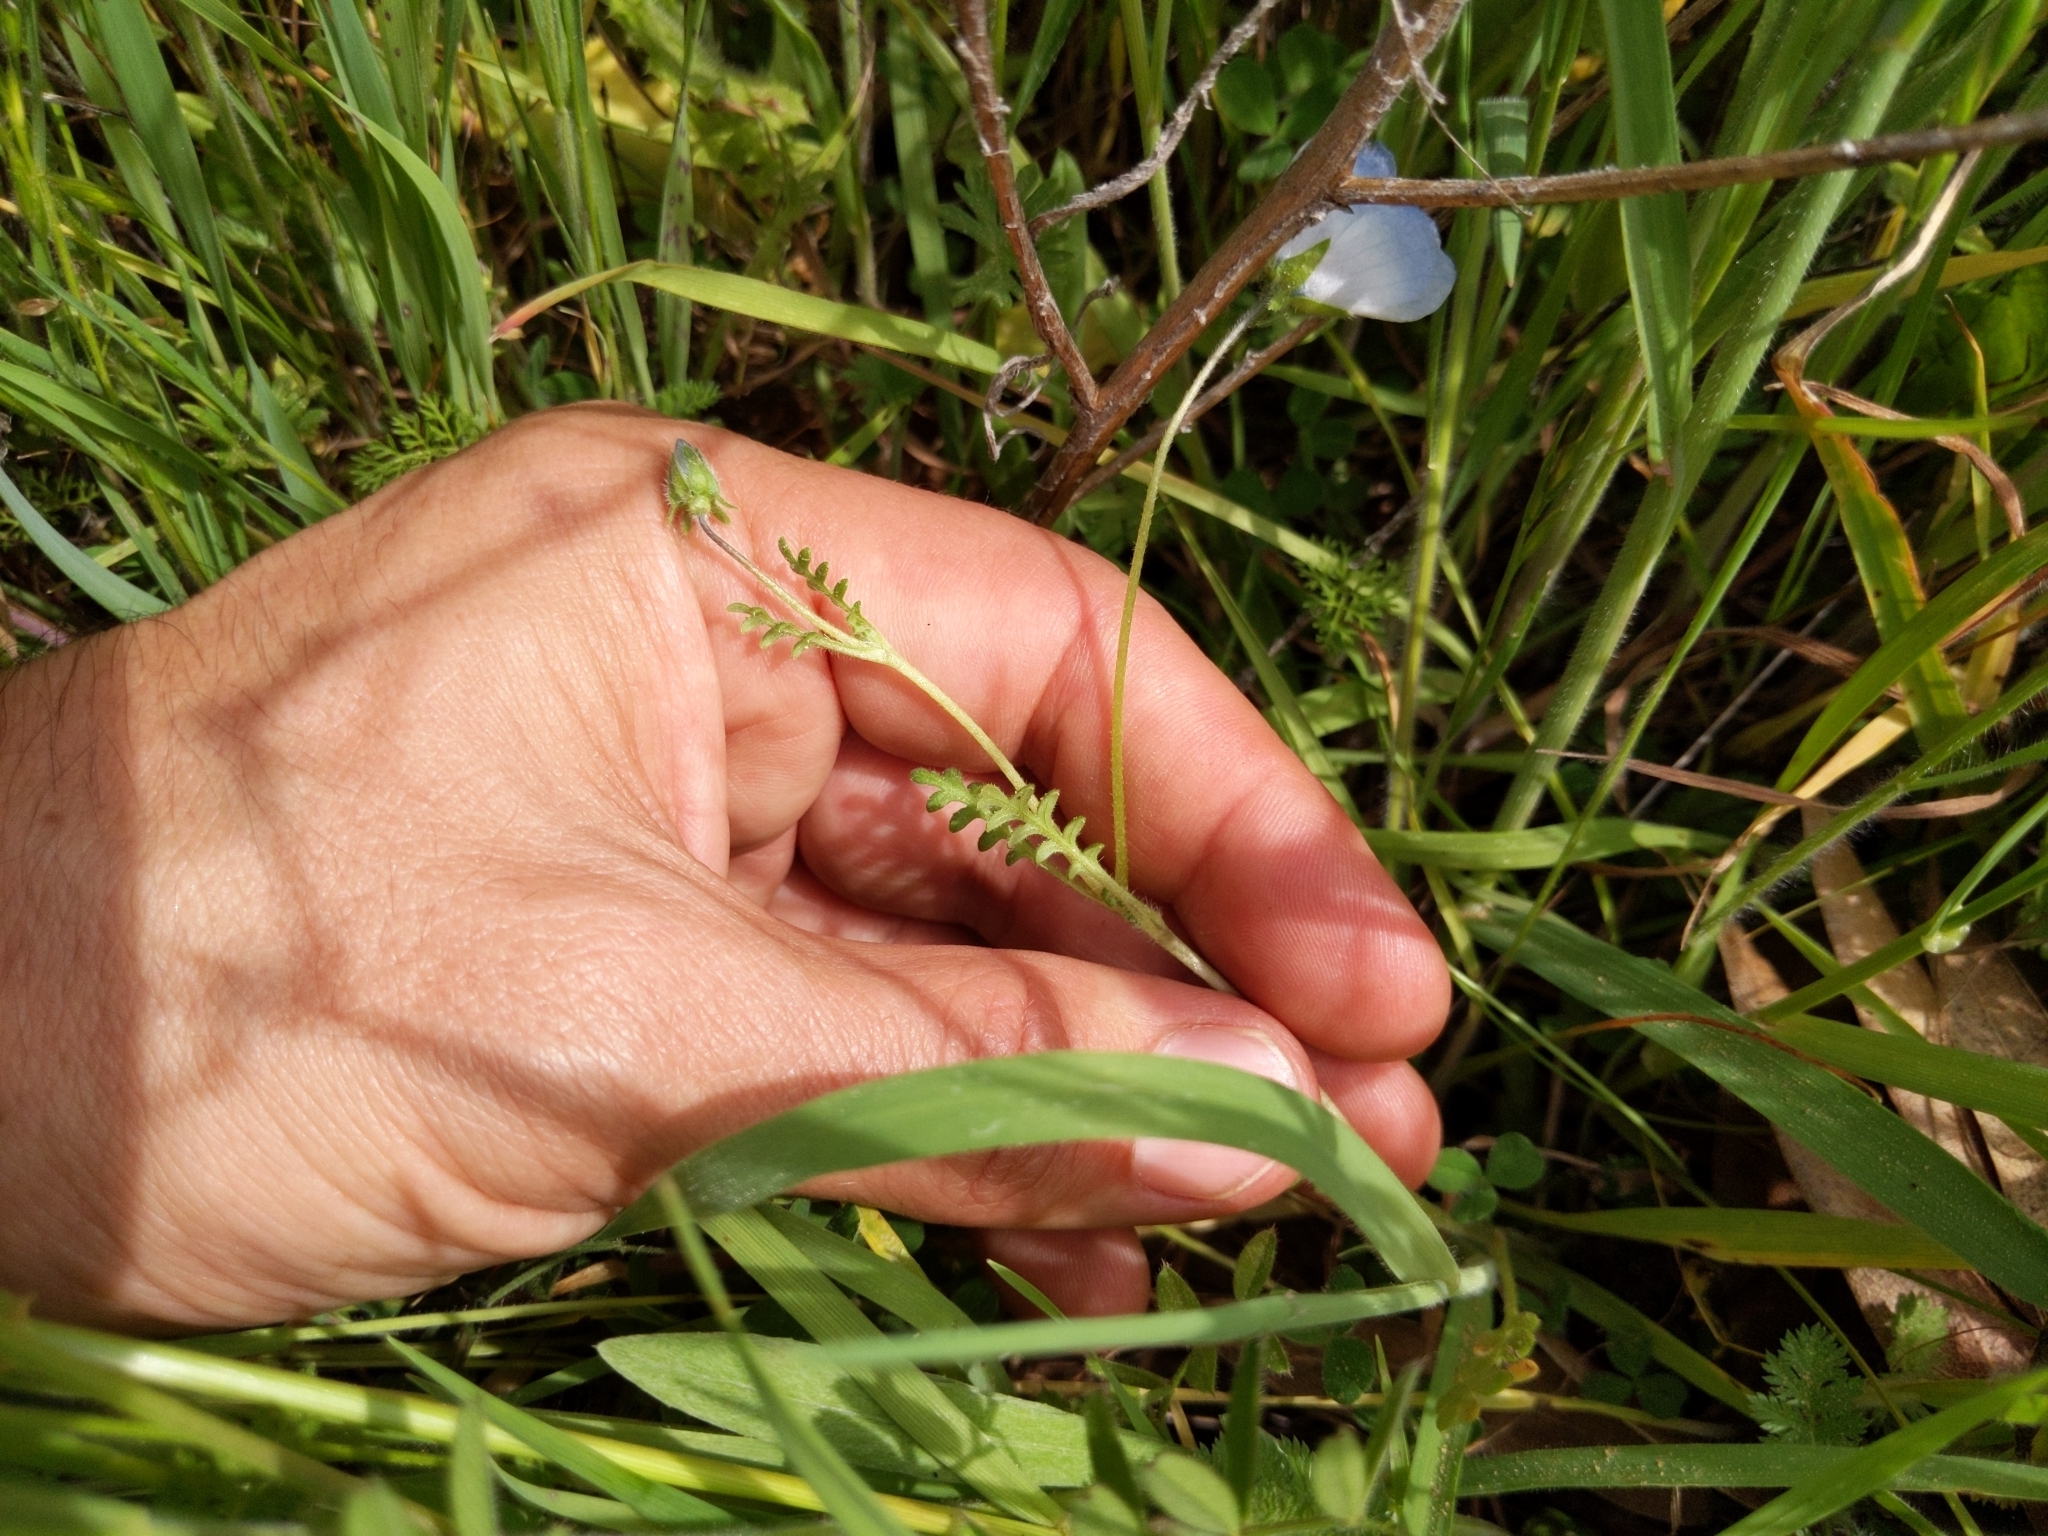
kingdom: Plantae
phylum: Tracheophyta
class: Magnoliopsida
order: Boraginales
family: Hydrophyllaceae
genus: Nemophila
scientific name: Nemophila menziesii
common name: Baby's-blue-eyes
